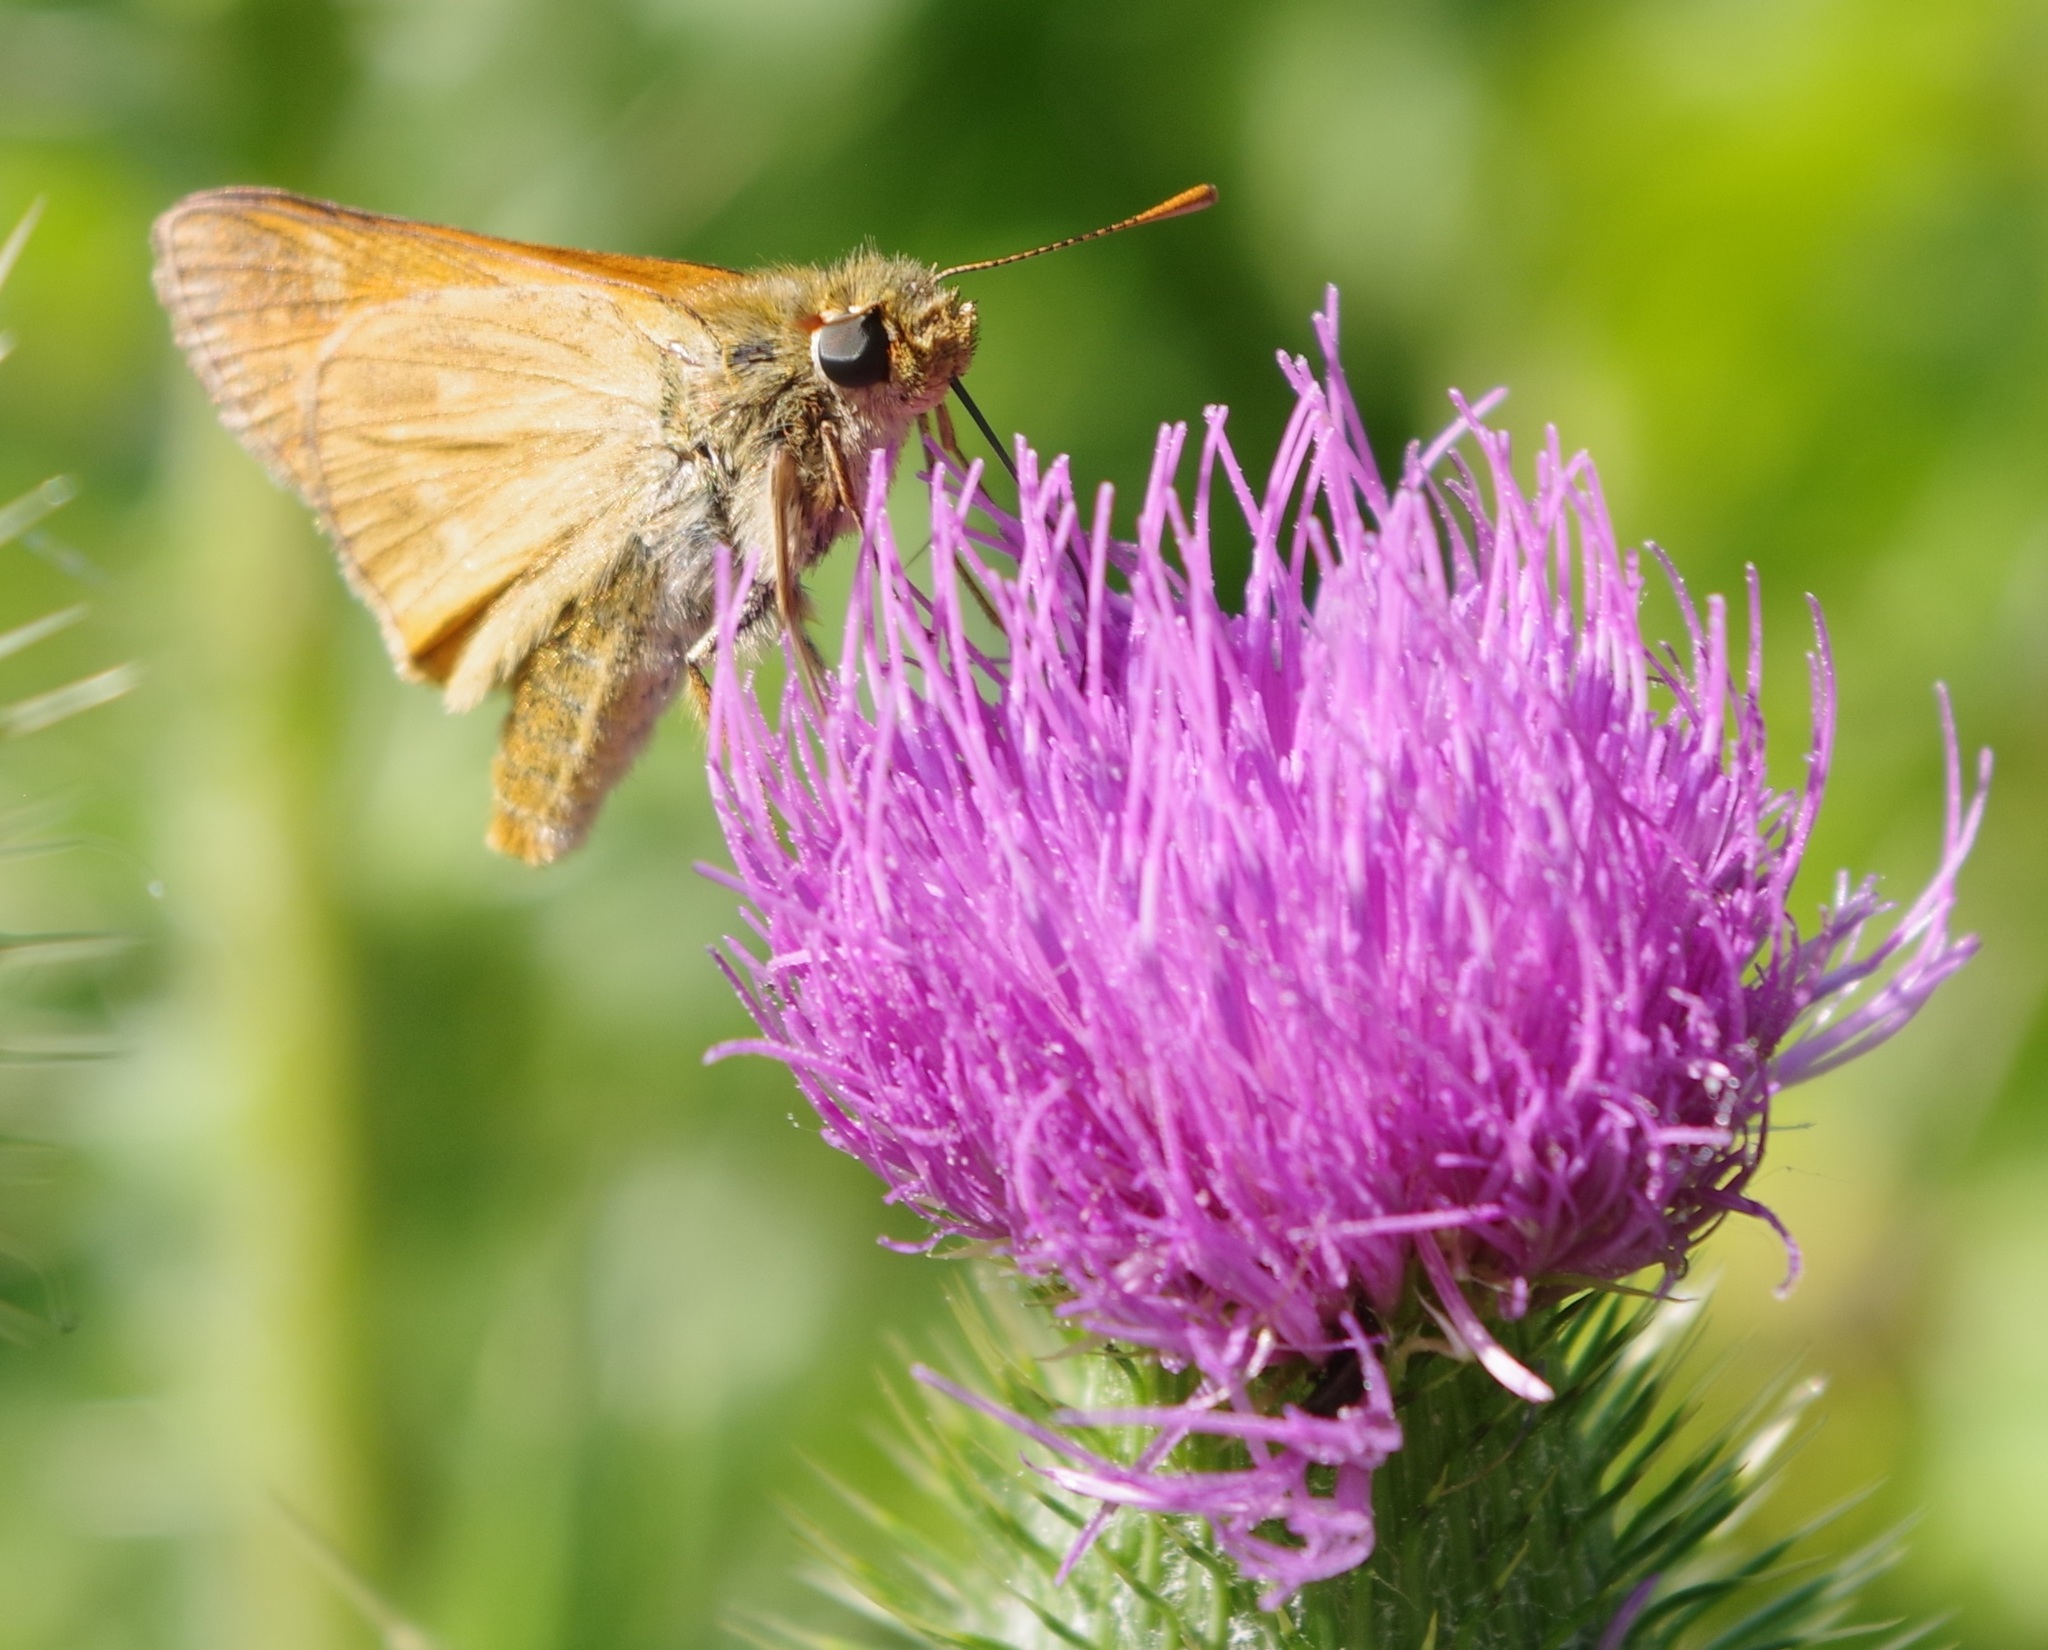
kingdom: Animalia
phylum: Arthropoda
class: Insecta
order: Lepidoptera
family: Hesperiidae
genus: Ochlodes
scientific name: Ochlodes venata
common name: Large skipper
